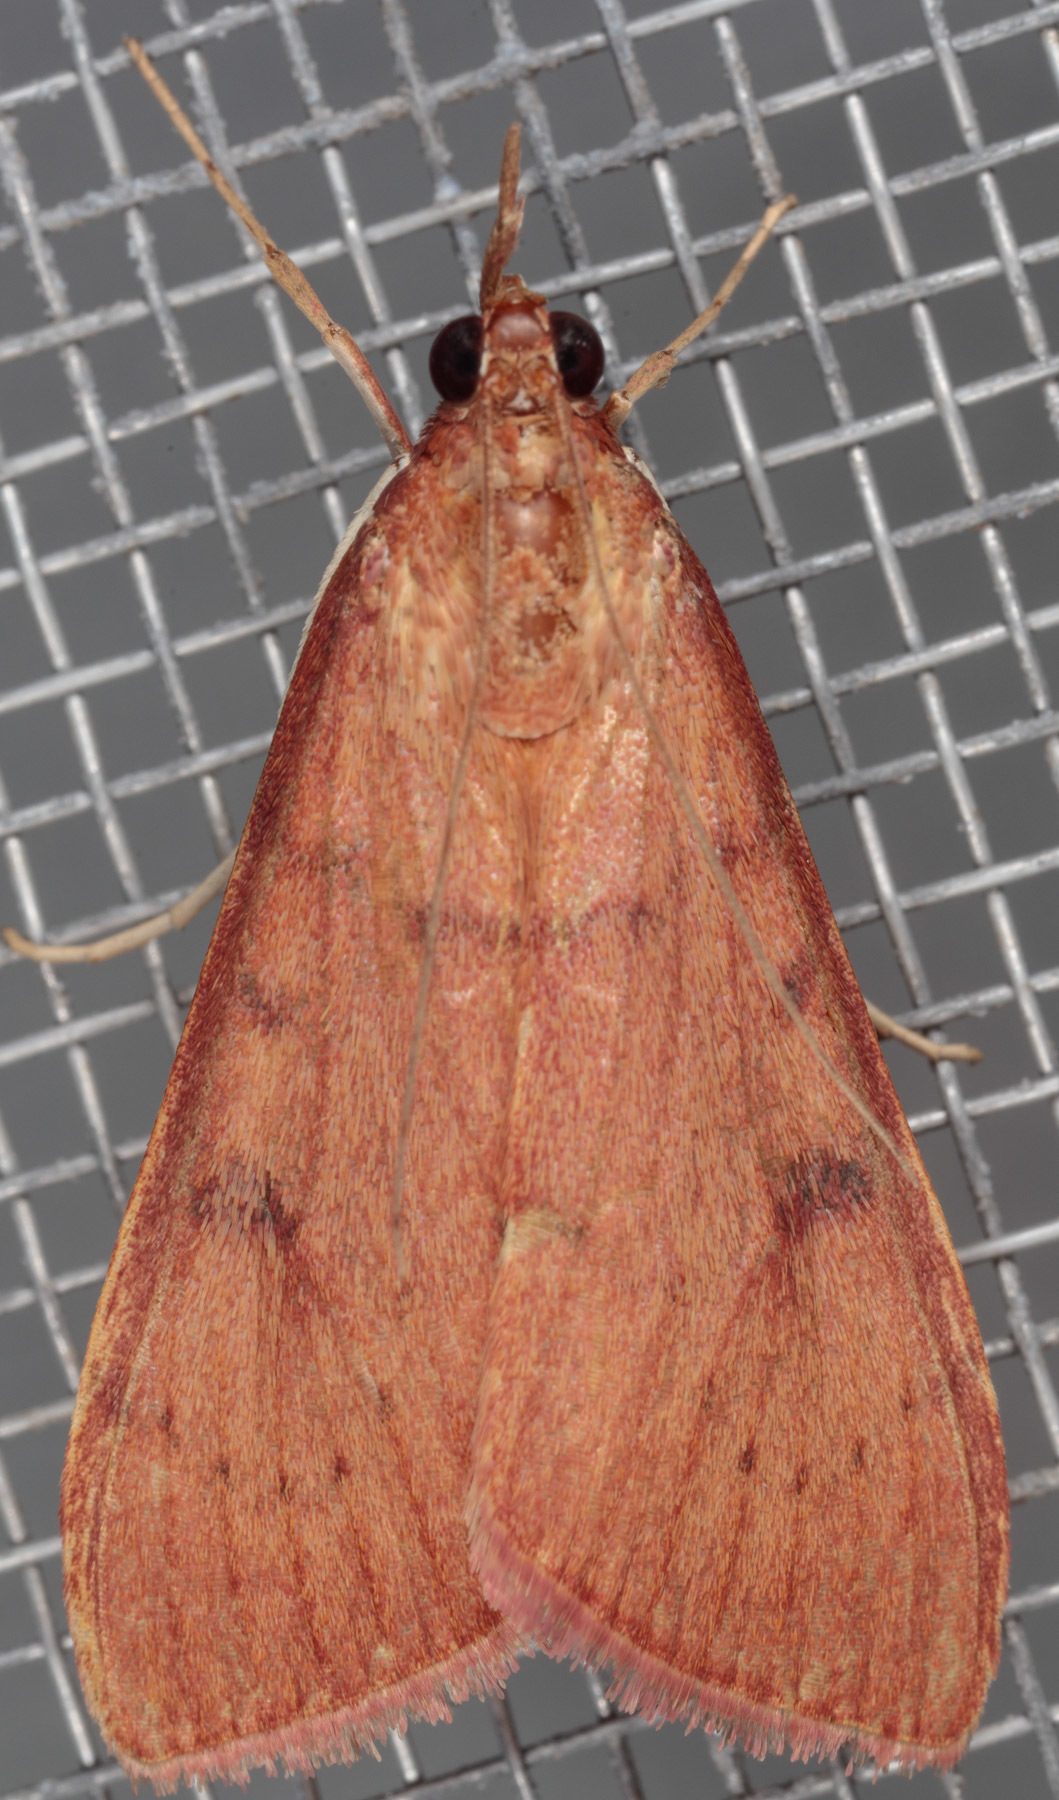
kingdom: Animalia
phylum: Arthropoda
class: Insecta
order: Lepidoptera
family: Crambidae
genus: Uresiphita
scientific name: Uresiphita reversalis
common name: Genista broom moth
